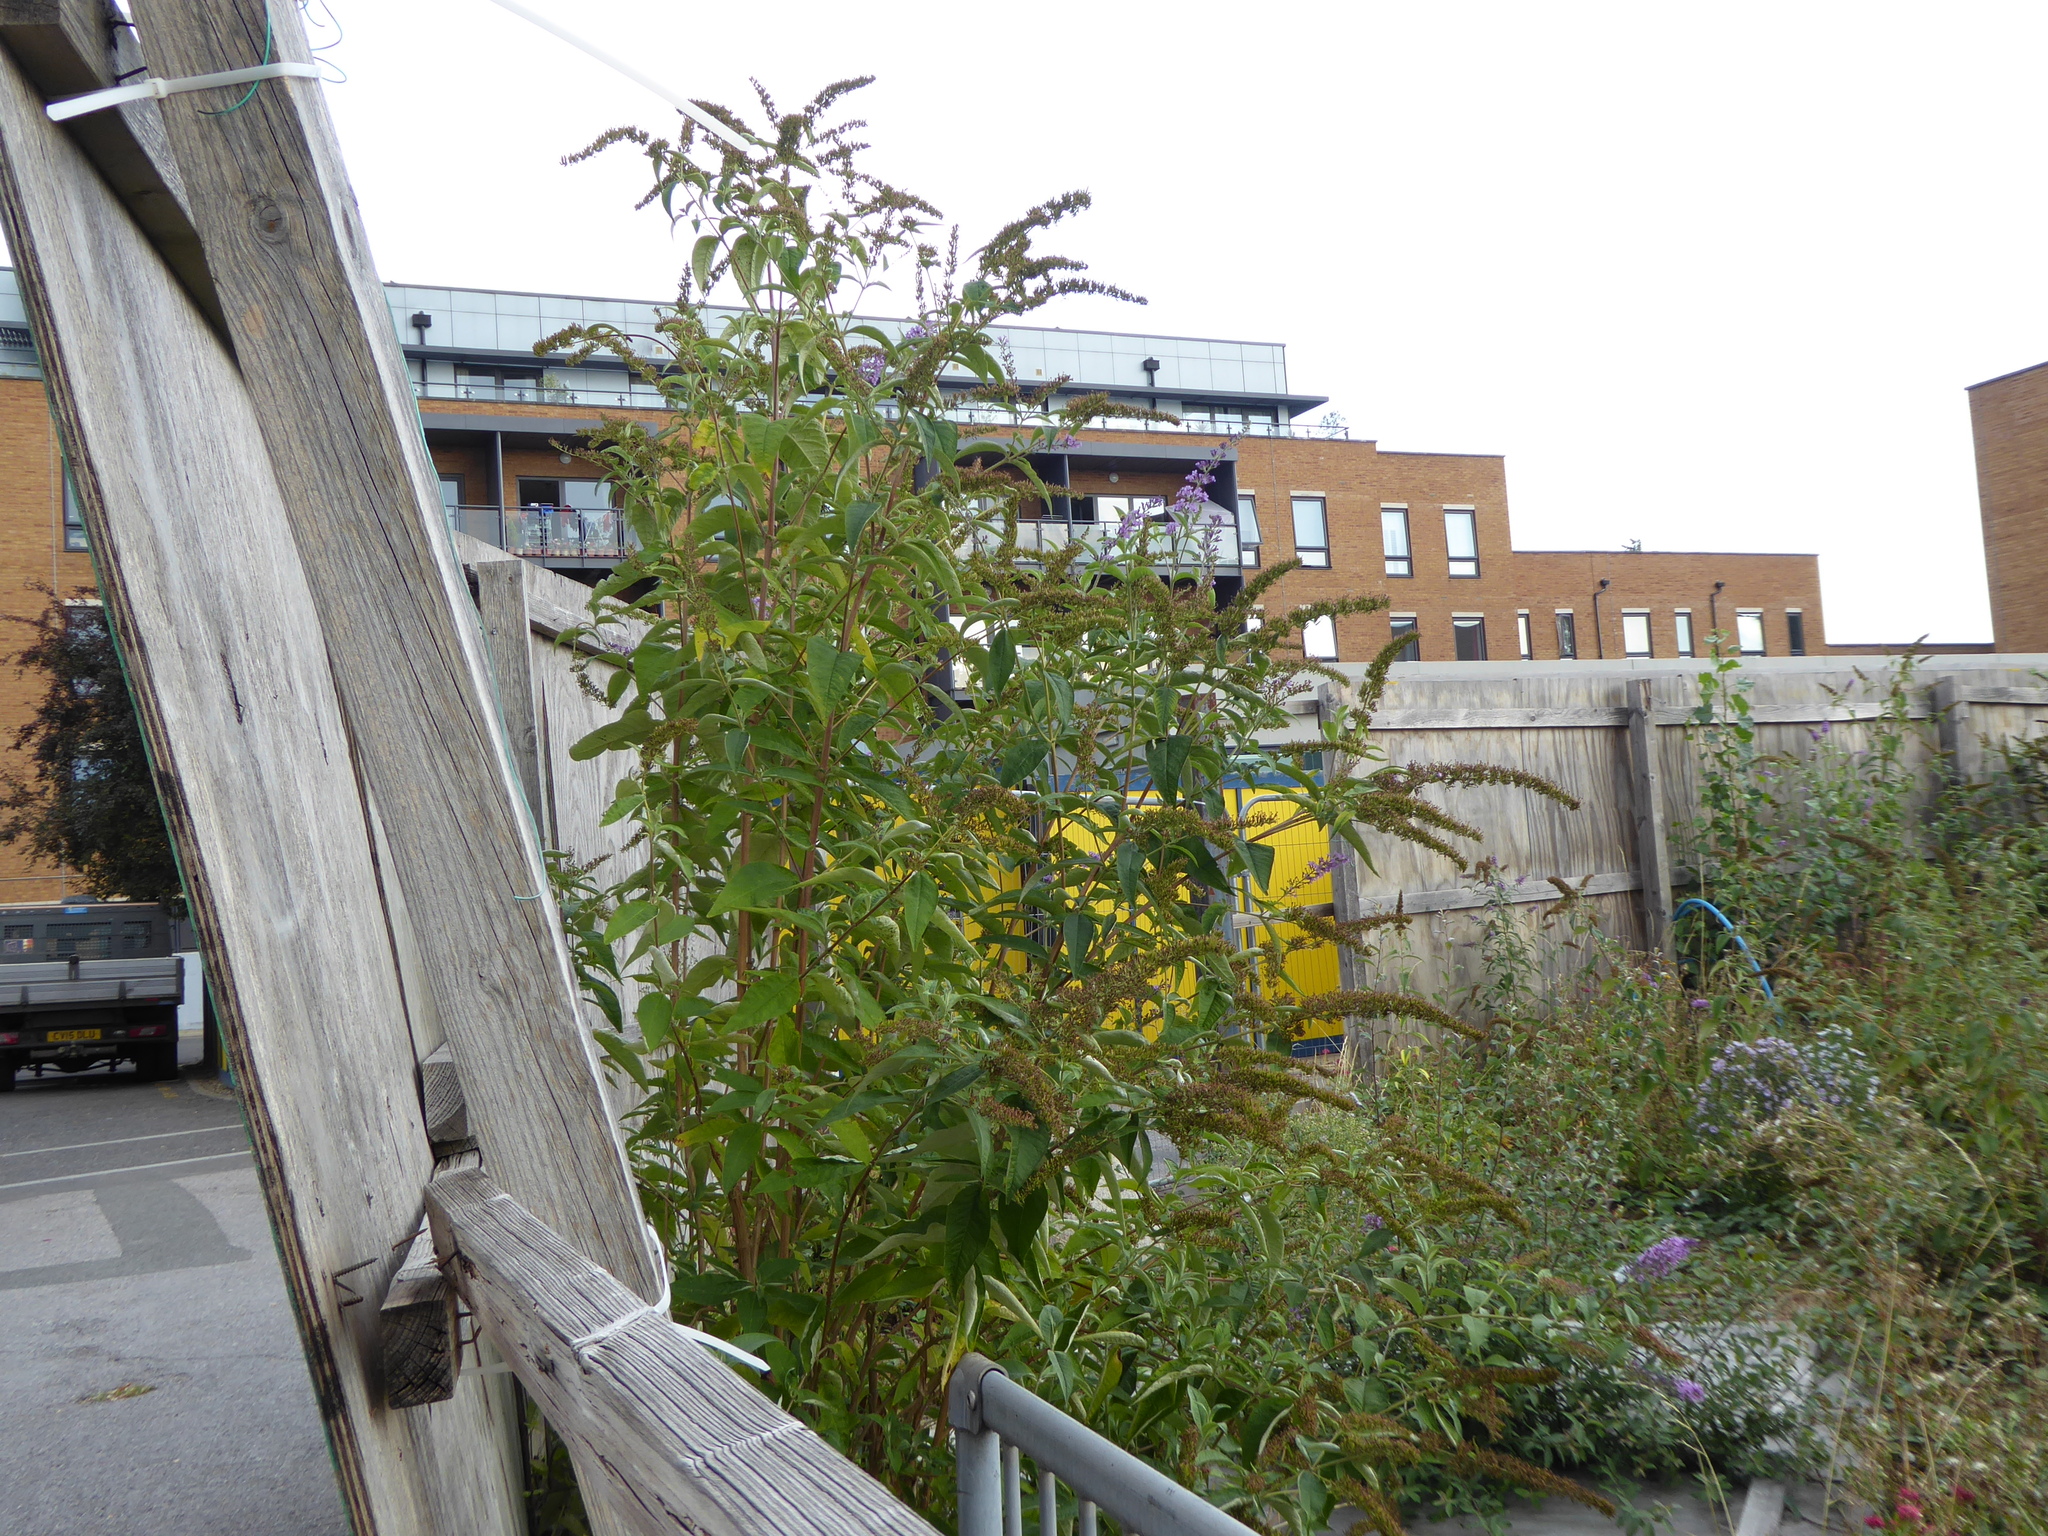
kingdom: Plantae
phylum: Tracheophyta
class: Magnoliopsida
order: Lamiales
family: Scrophulariaceae
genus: Buddleja
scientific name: Buddleja davidii
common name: Butterfly-bush
